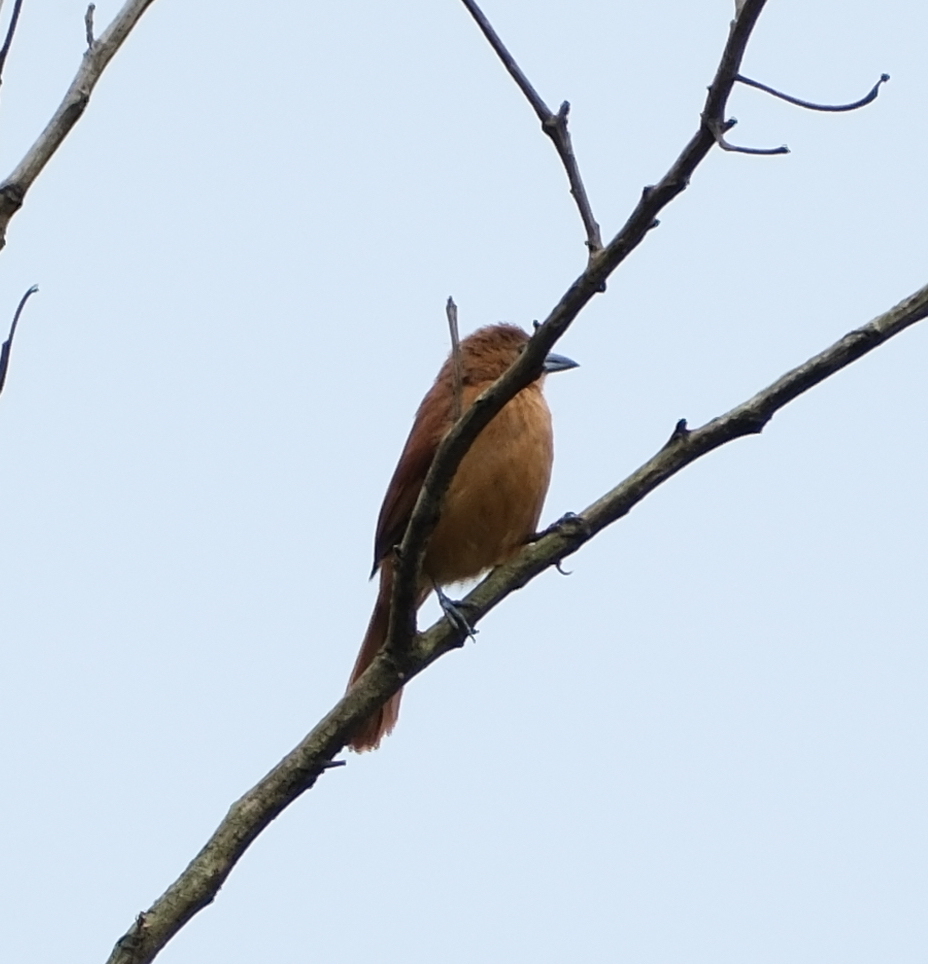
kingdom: Animalia
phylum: Chordata
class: Aves
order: Passeriformes
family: Thraupidae
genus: Tachyphonus
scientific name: Tachyphonus rufus
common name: White-lined tanager
